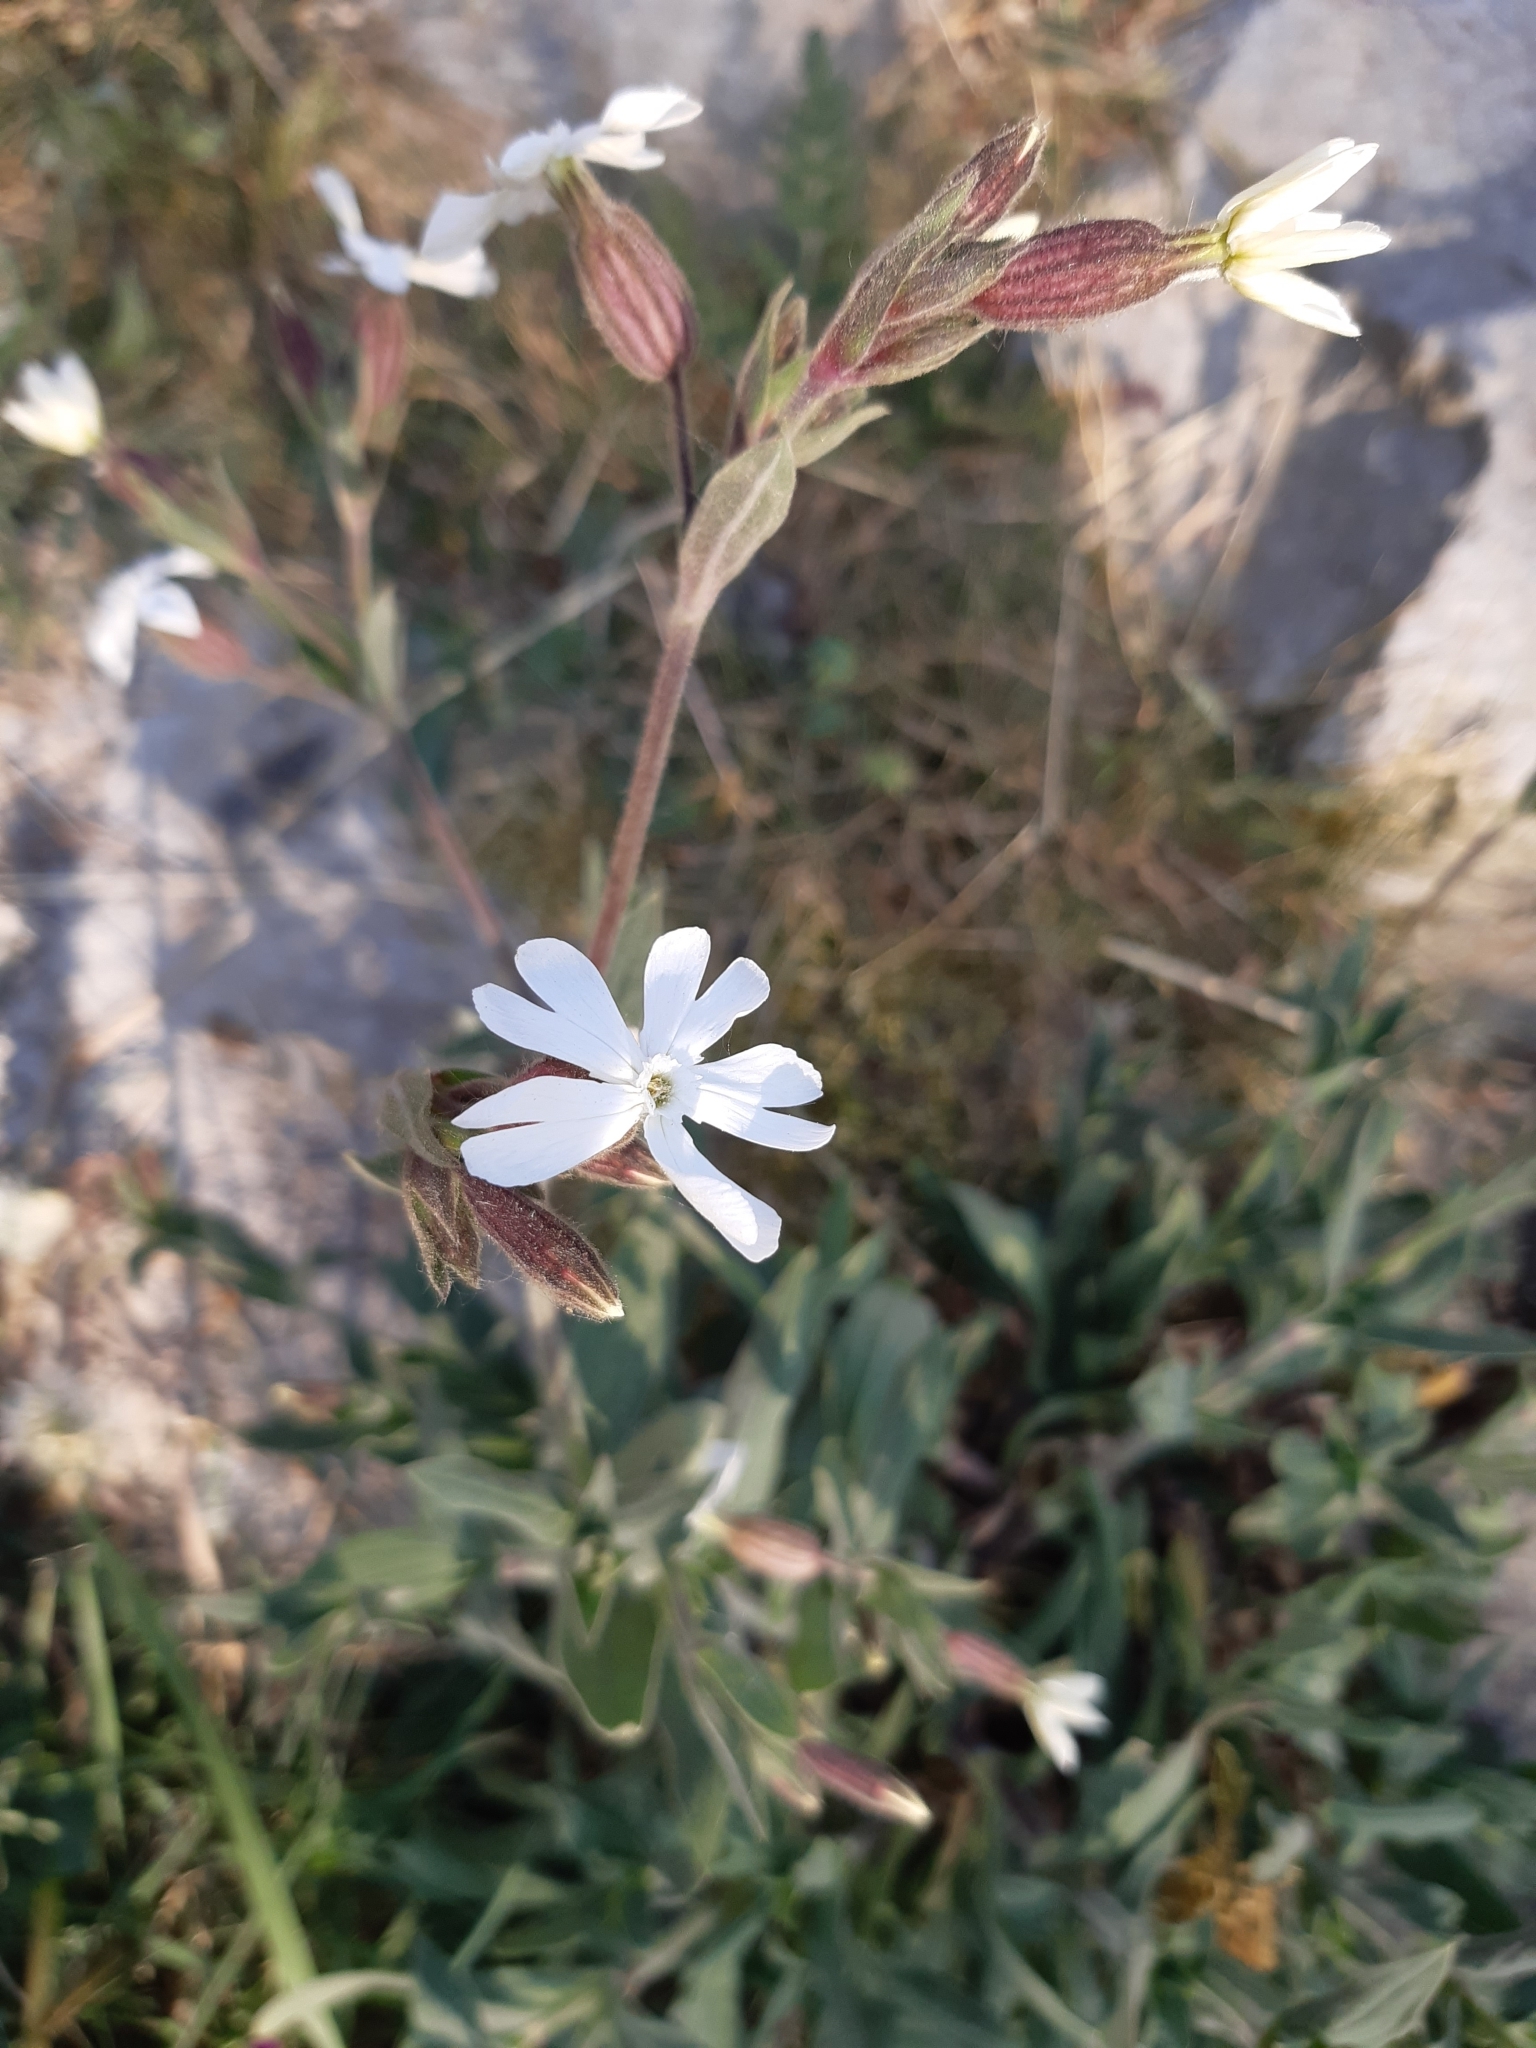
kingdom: Plantae
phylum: Tracheophyta
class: Magnoliopsida
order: Caryophyllales
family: Caryophyllaceae
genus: Silene
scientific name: Silene latifolia
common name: White campion
